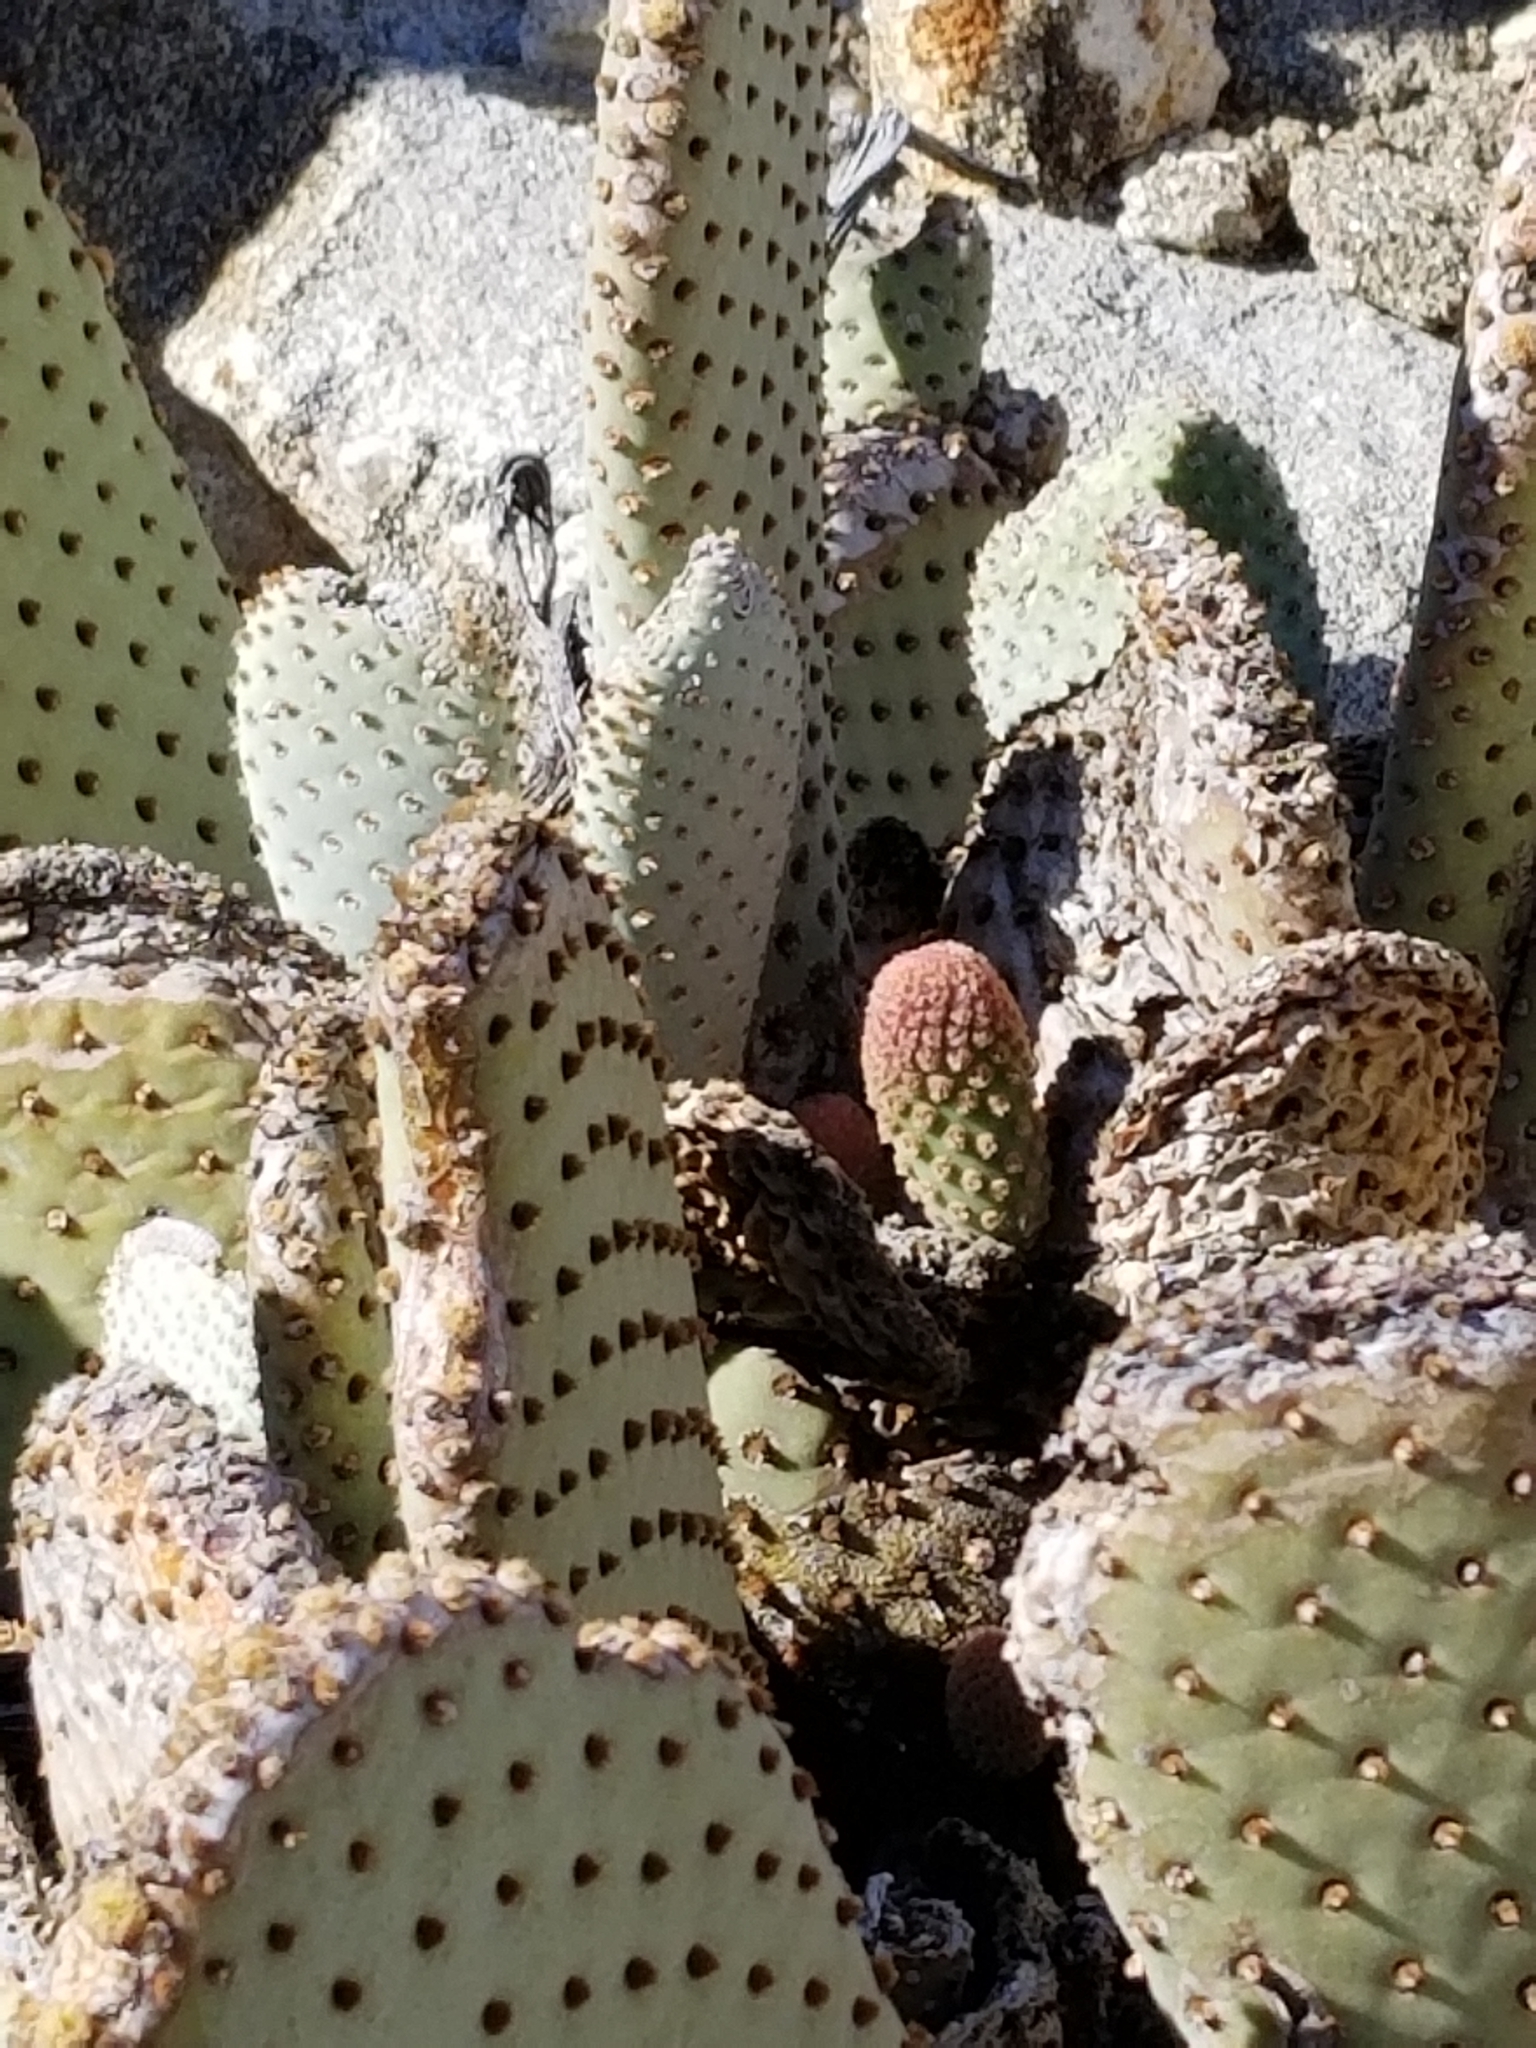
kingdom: Plantae
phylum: Tracheophyta
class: Magnoliopsida
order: Caryophyllales
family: Cactaceae
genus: Opuntia
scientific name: Opuntia basilaris
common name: Beavertail prickly-pear
